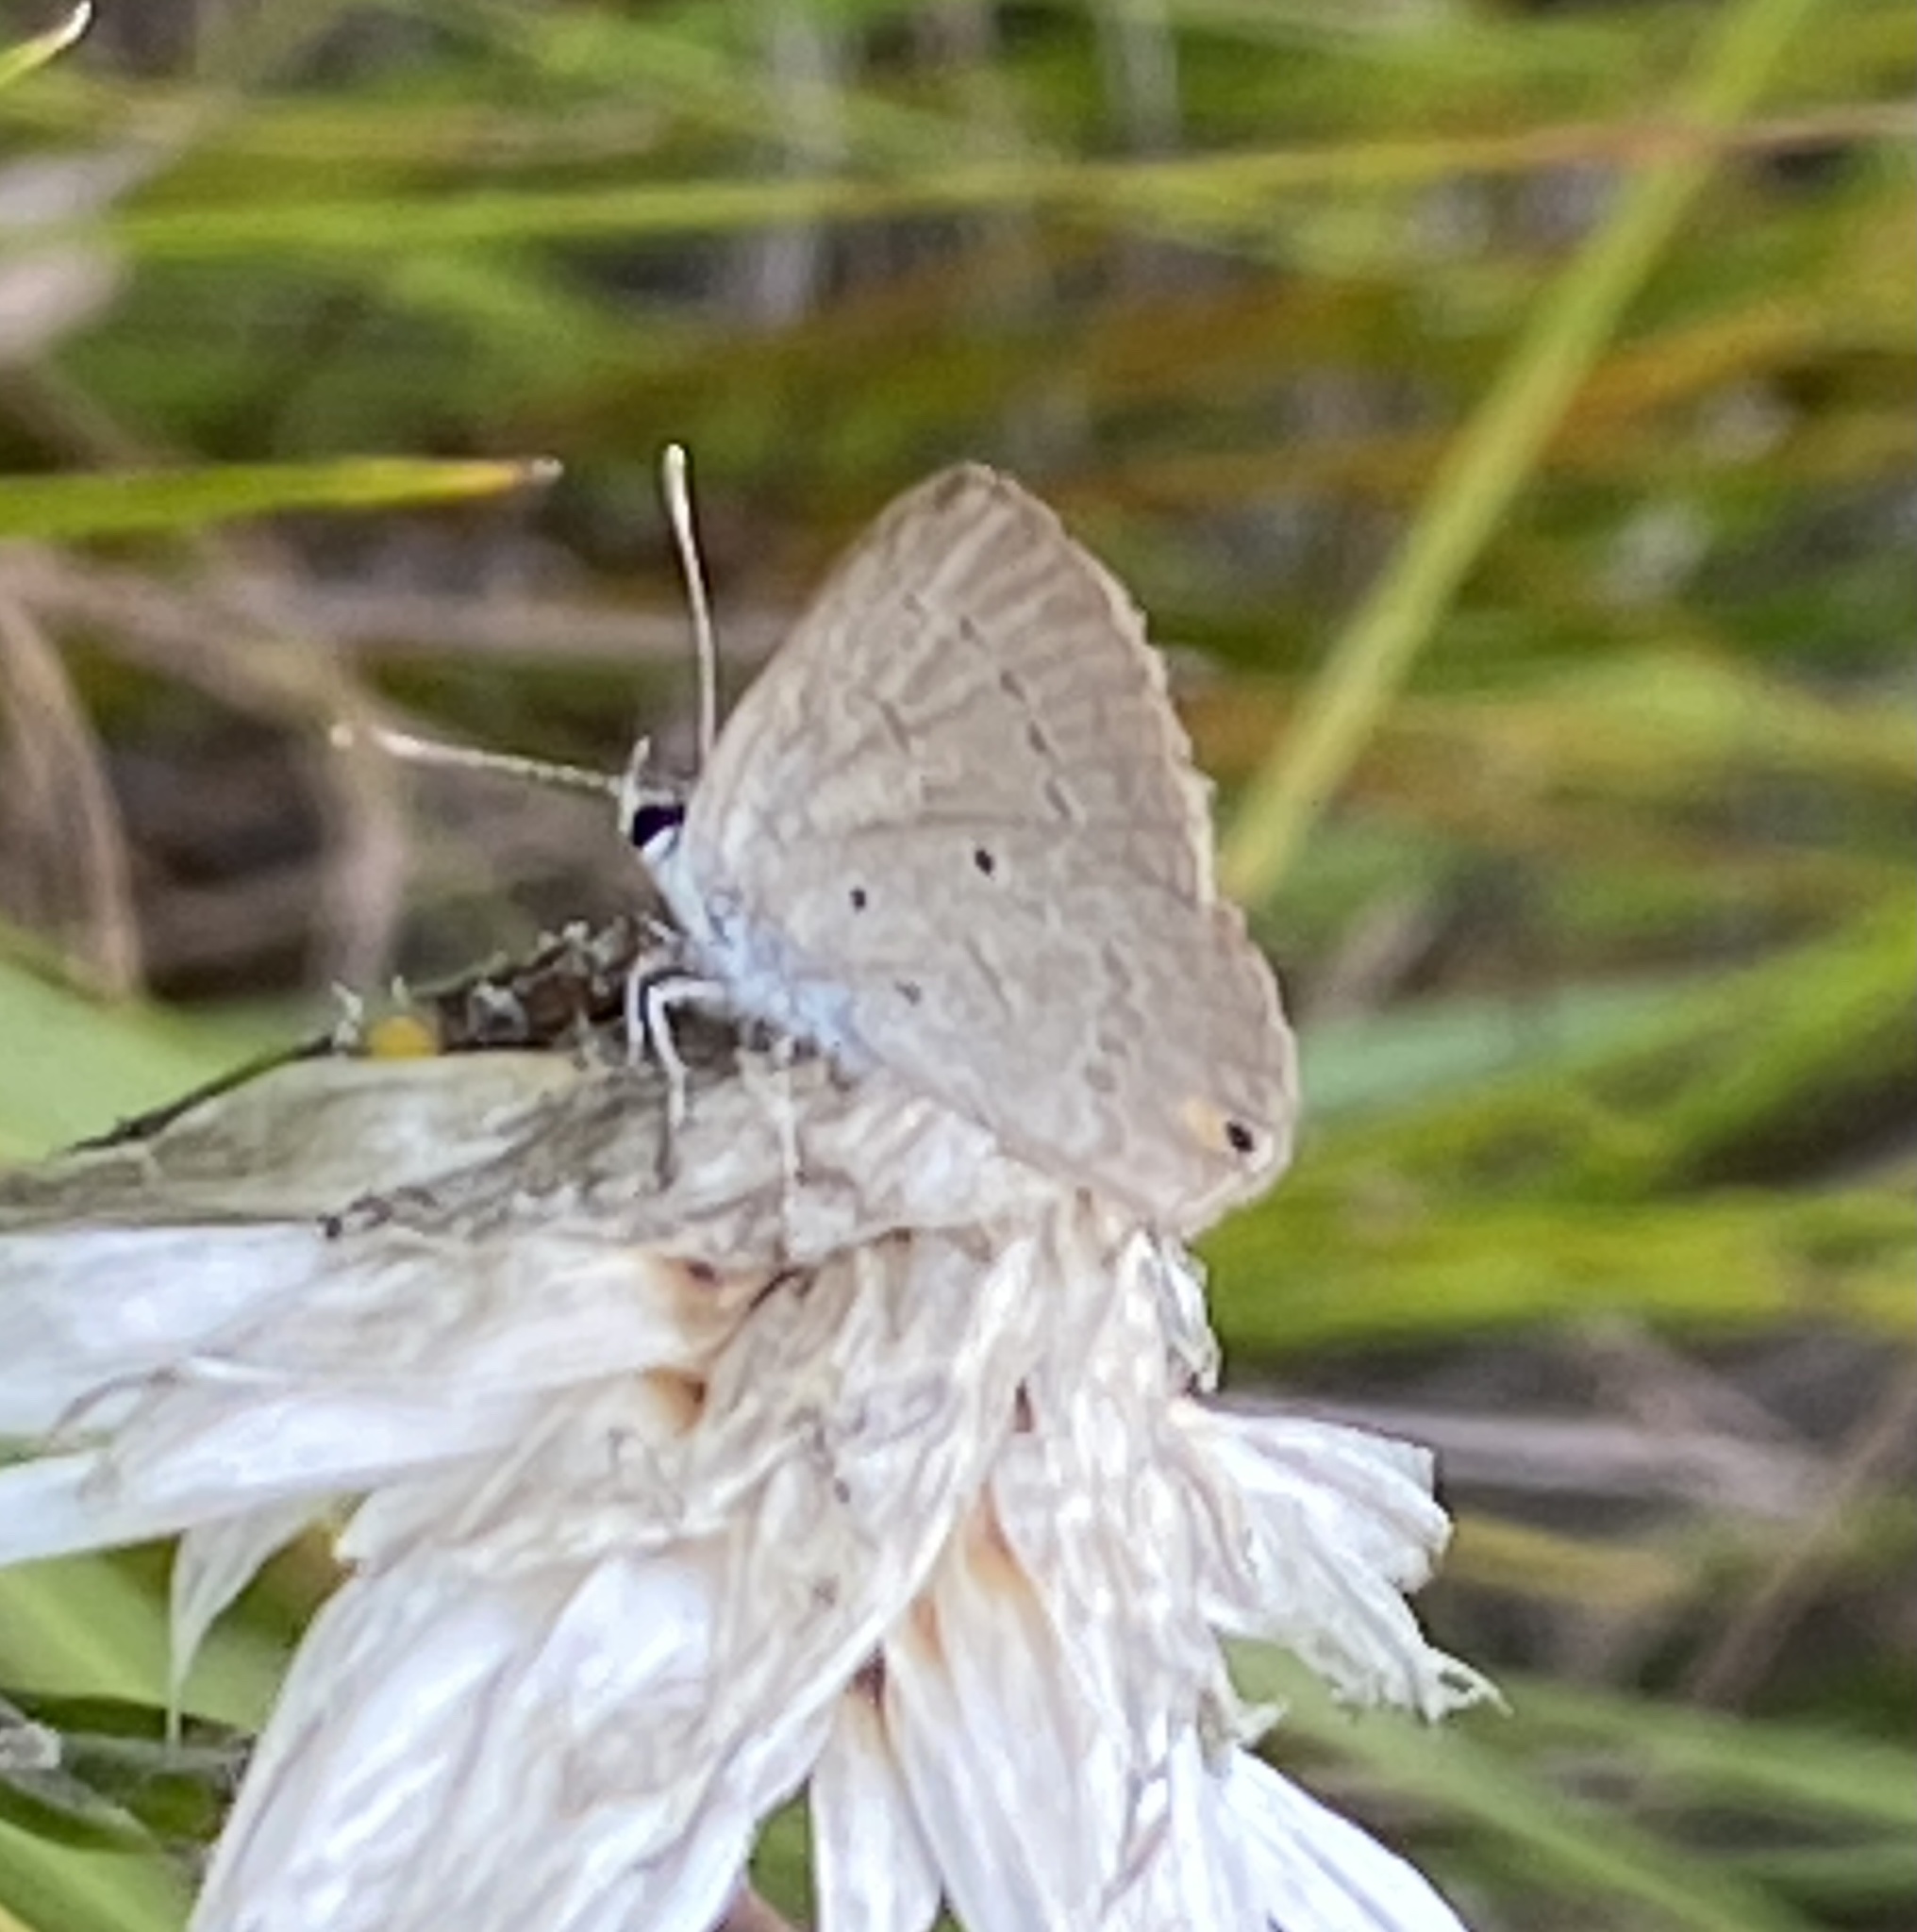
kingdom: Animalia
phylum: Arthropoda
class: Insecta
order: Lepidoptera
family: Lycaenidae
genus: Eicochrysops
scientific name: Eicochrysops messapus
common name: Cupreous blue
